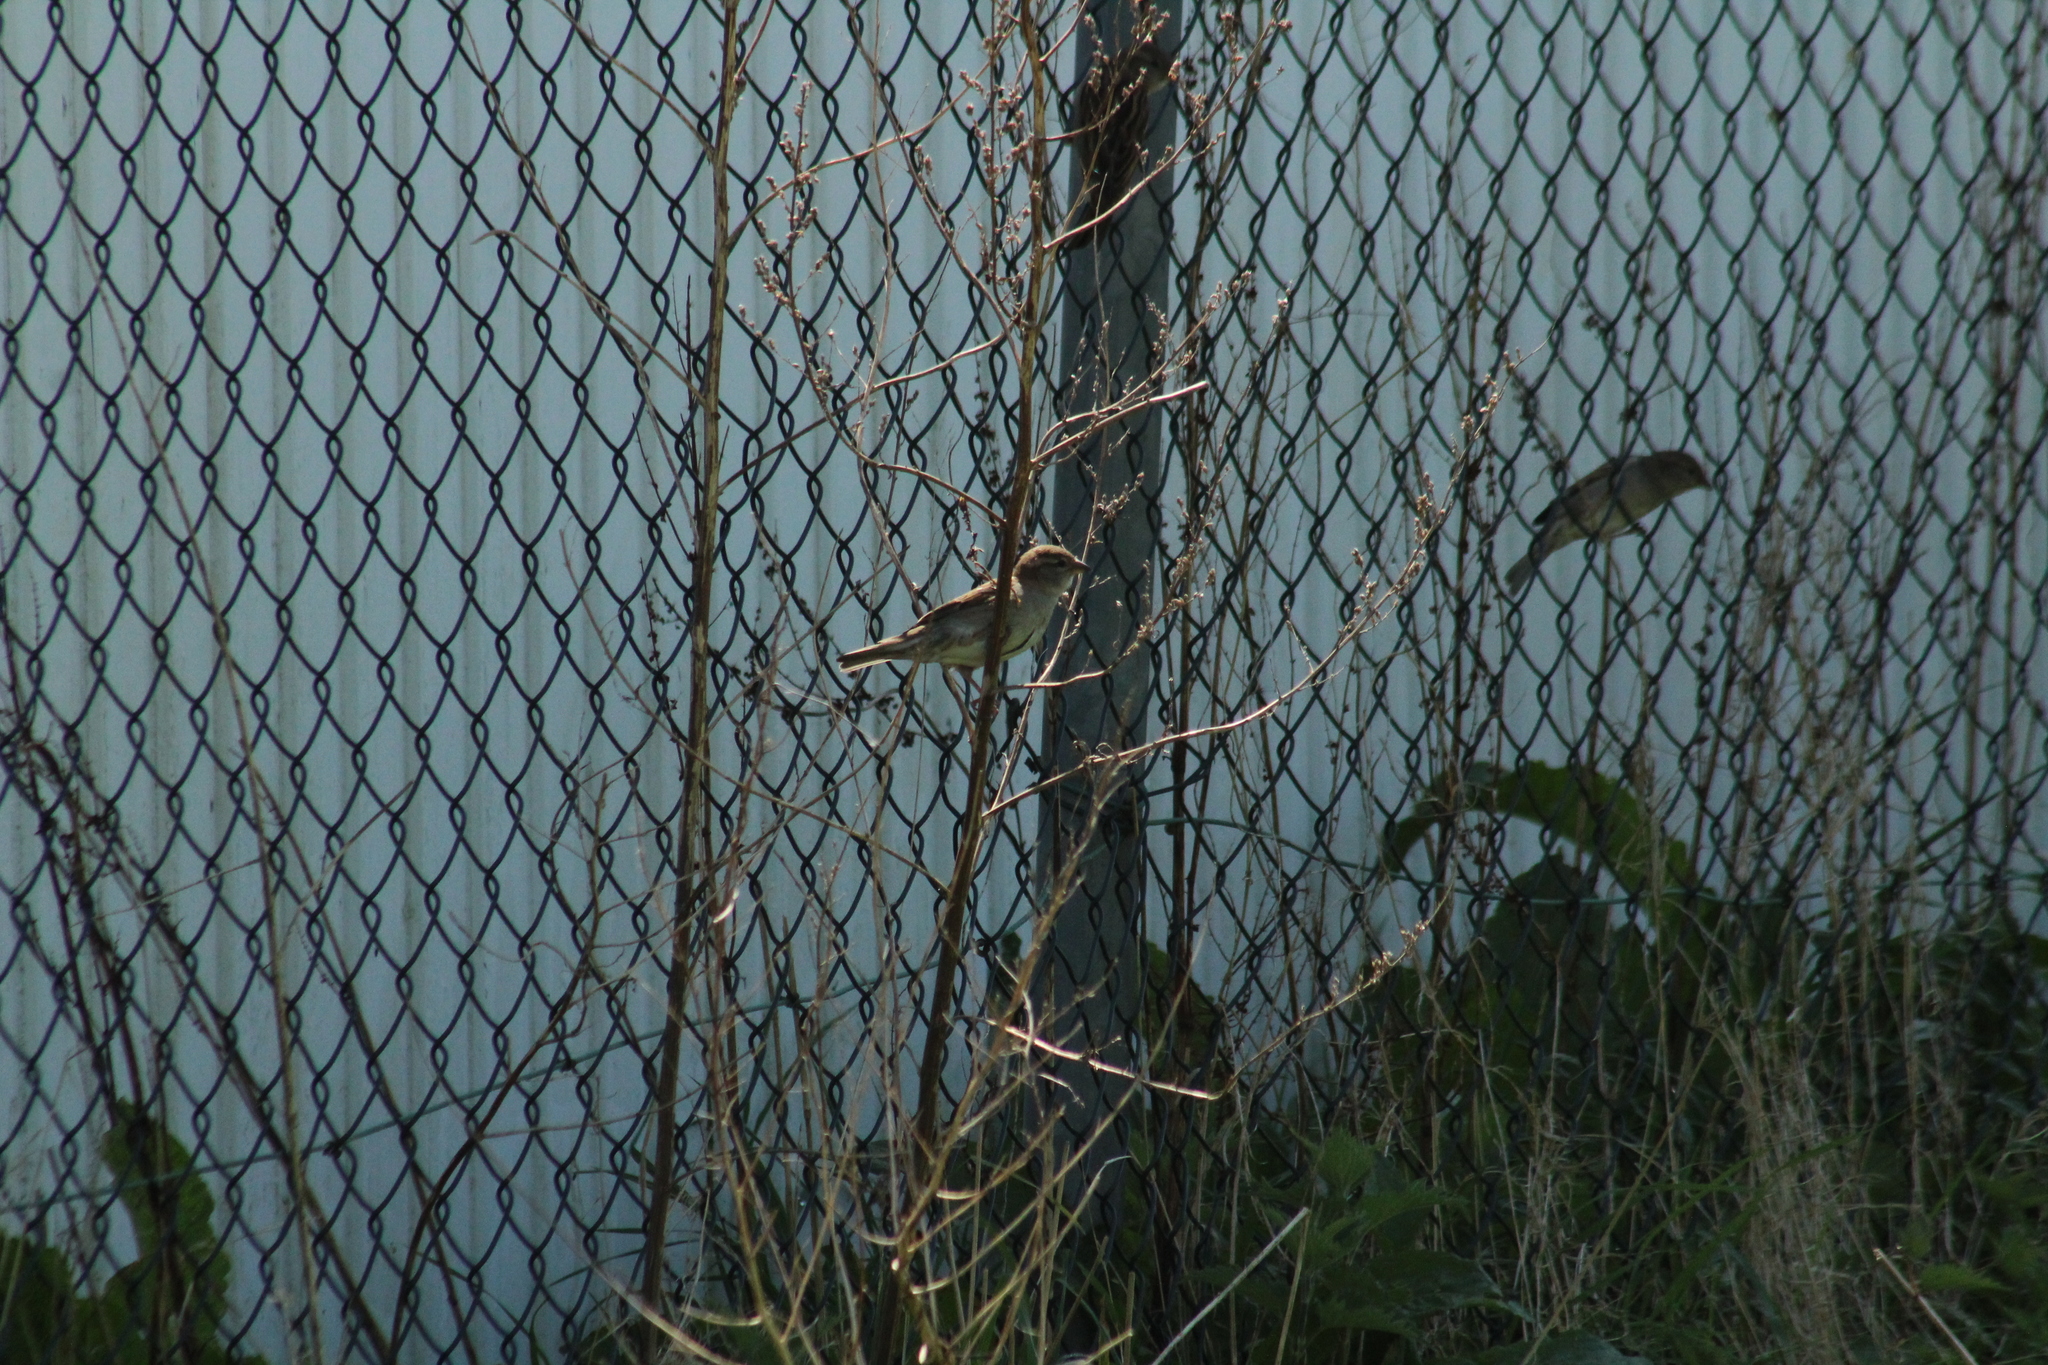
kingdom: Animalia
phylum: Chordata
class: Aves
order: Passeriformes
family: Passeridae
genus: Passer
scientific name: Passer domesticus
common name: House sparrow
